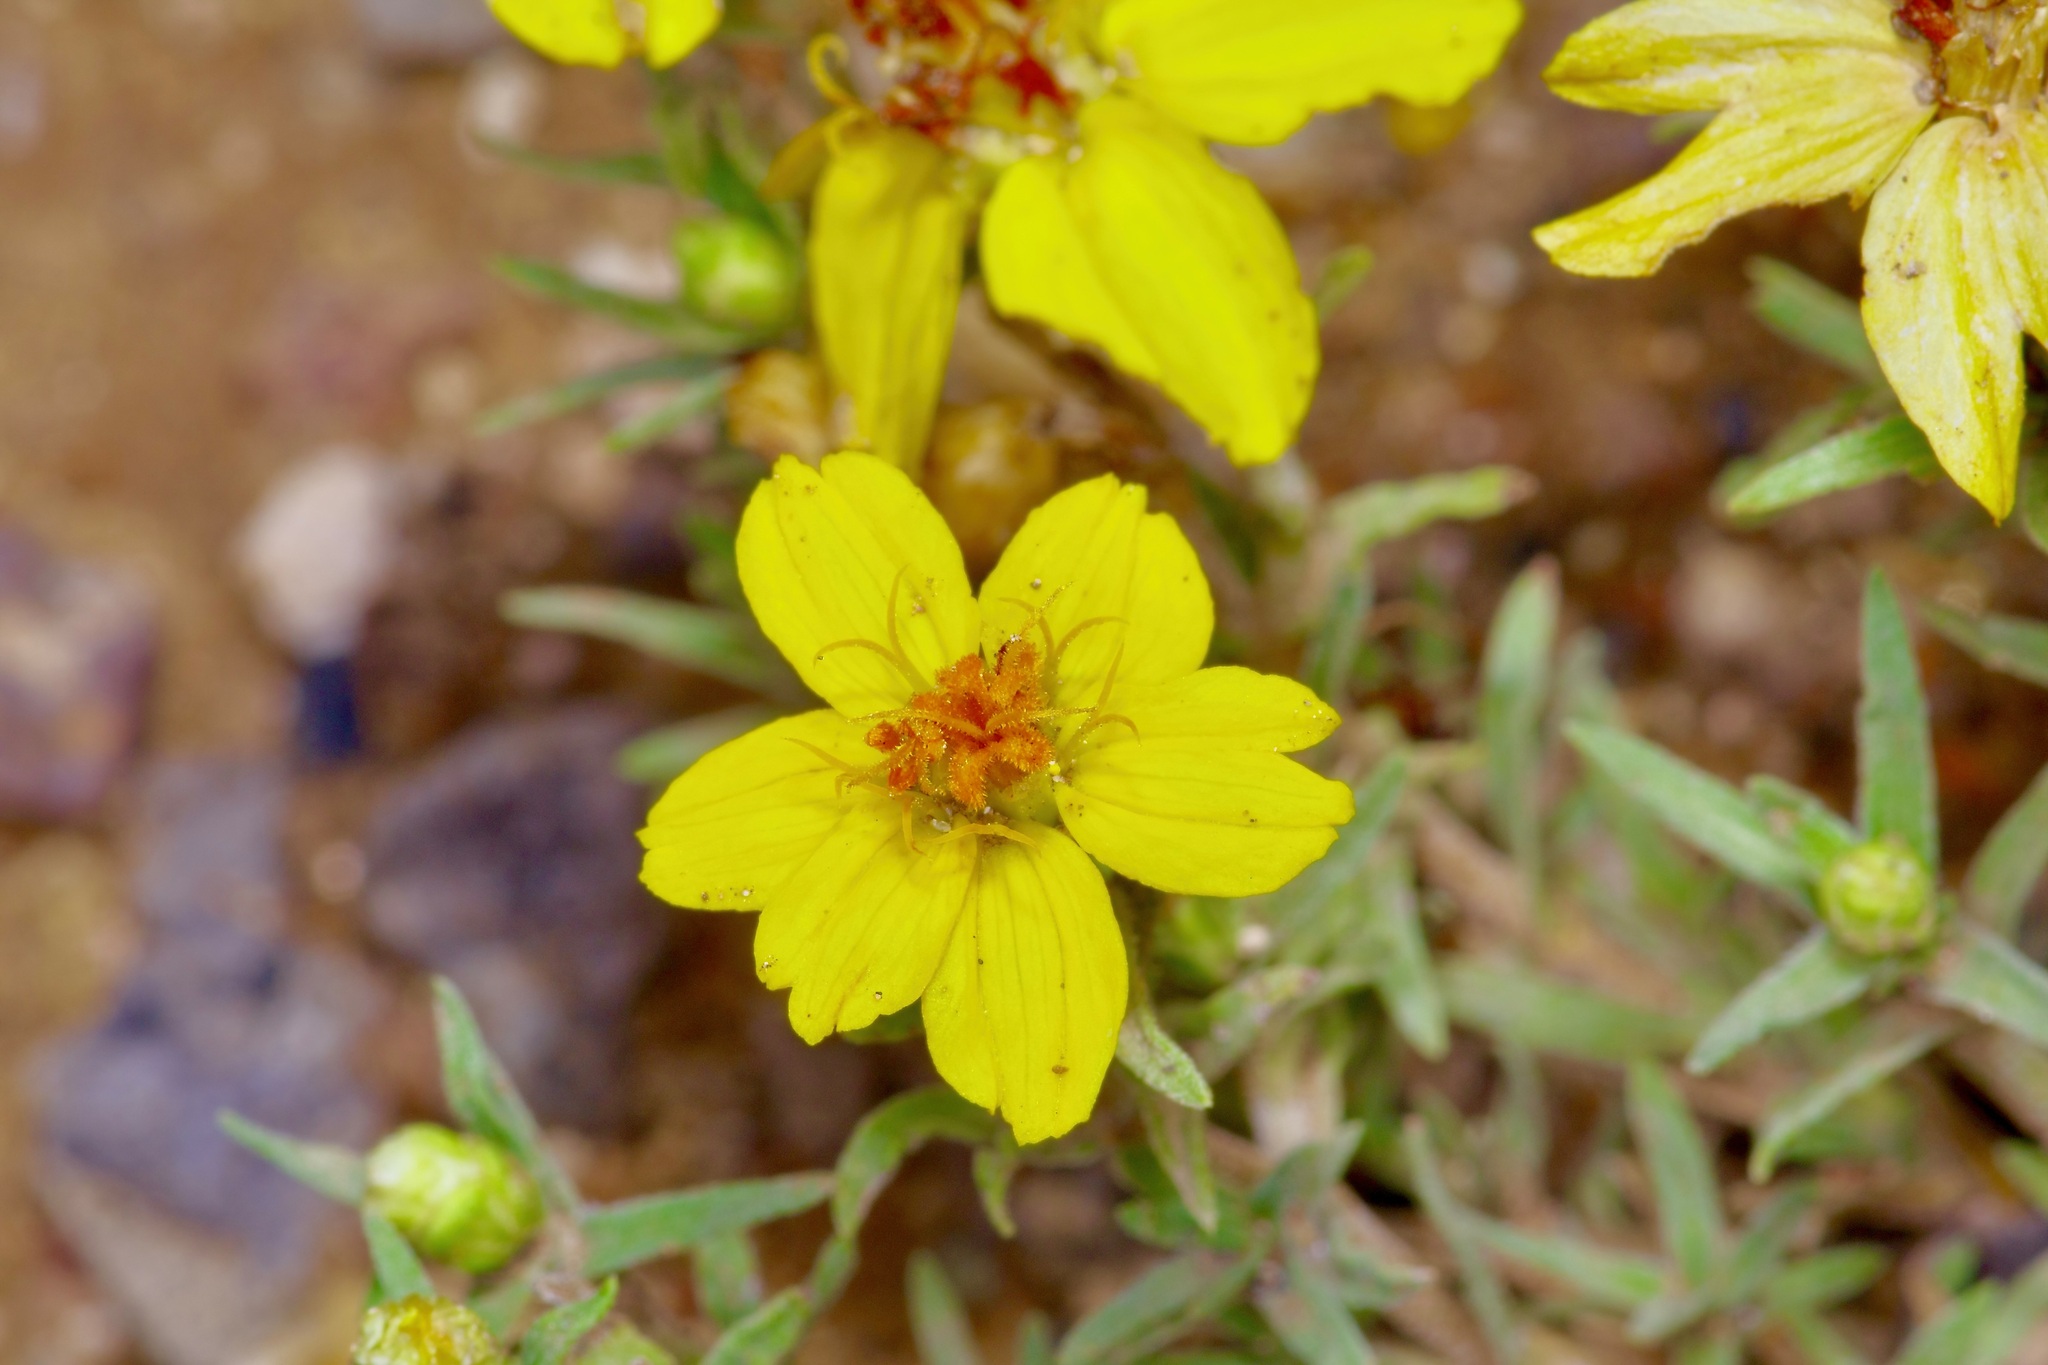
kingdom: Plantae
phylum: Tracheophyta
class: Magnoliopsida
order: Asterales
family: Asteraceae
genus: Zinnia
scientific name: Zinnia grandiflora
